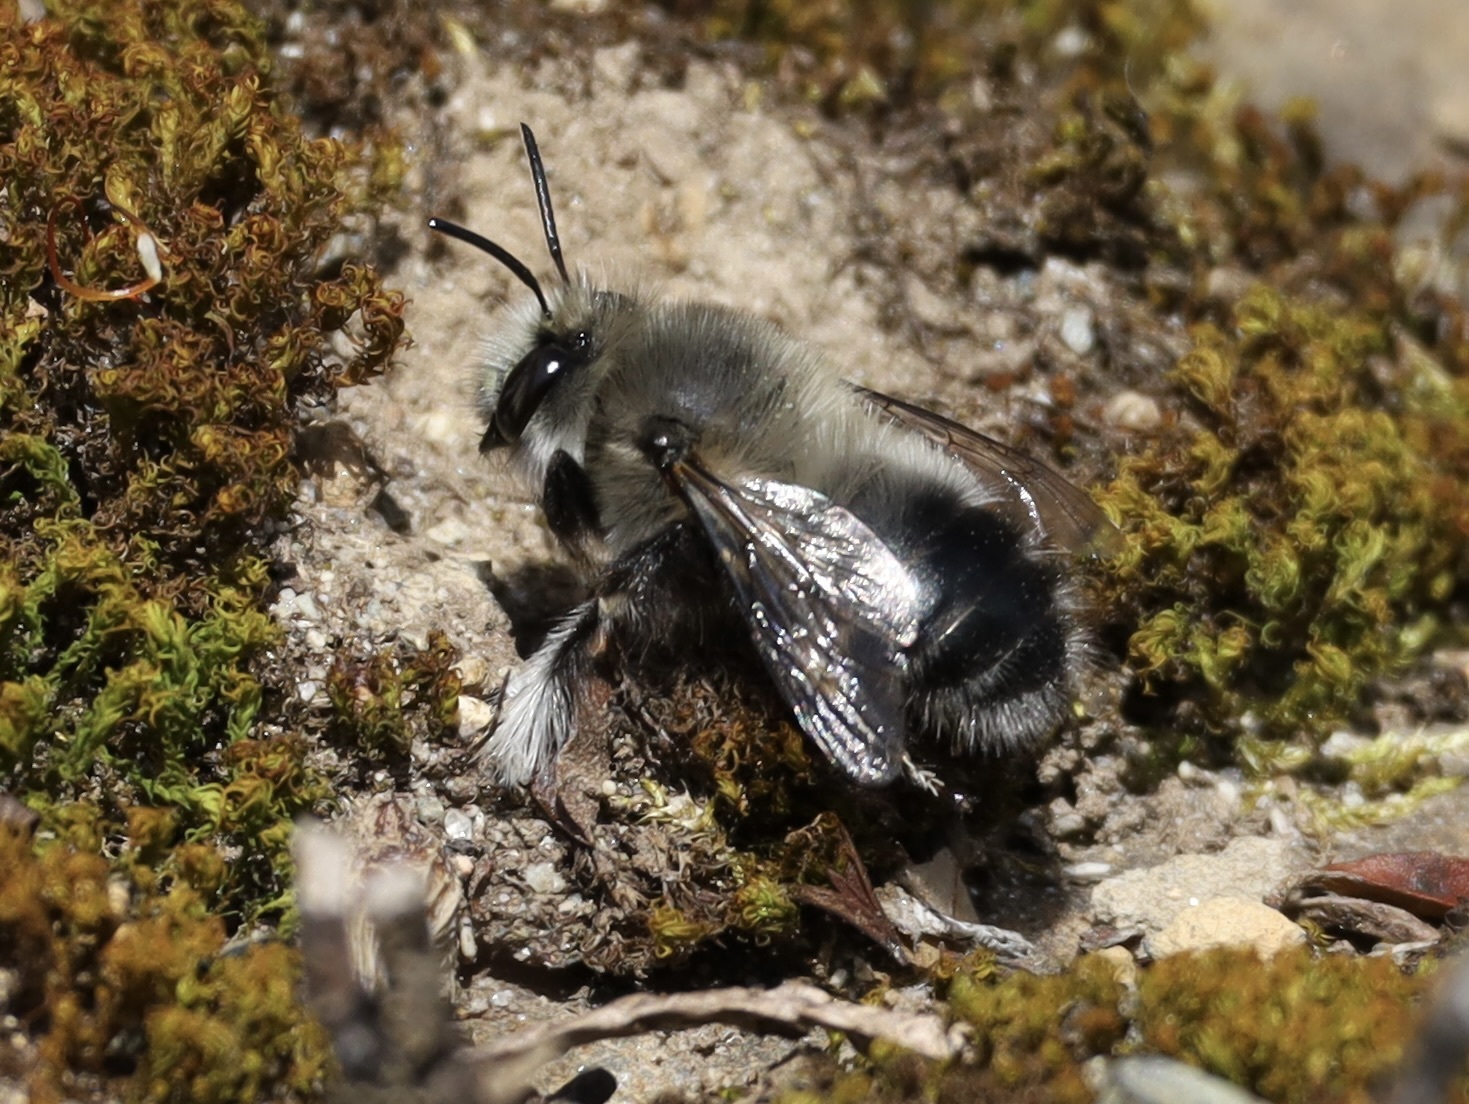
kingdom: Animalia
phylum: Arthropoda
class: Insecta
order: Hymenoptera
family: Apidae
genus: Anthophora
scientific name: Anthophora pacifica
